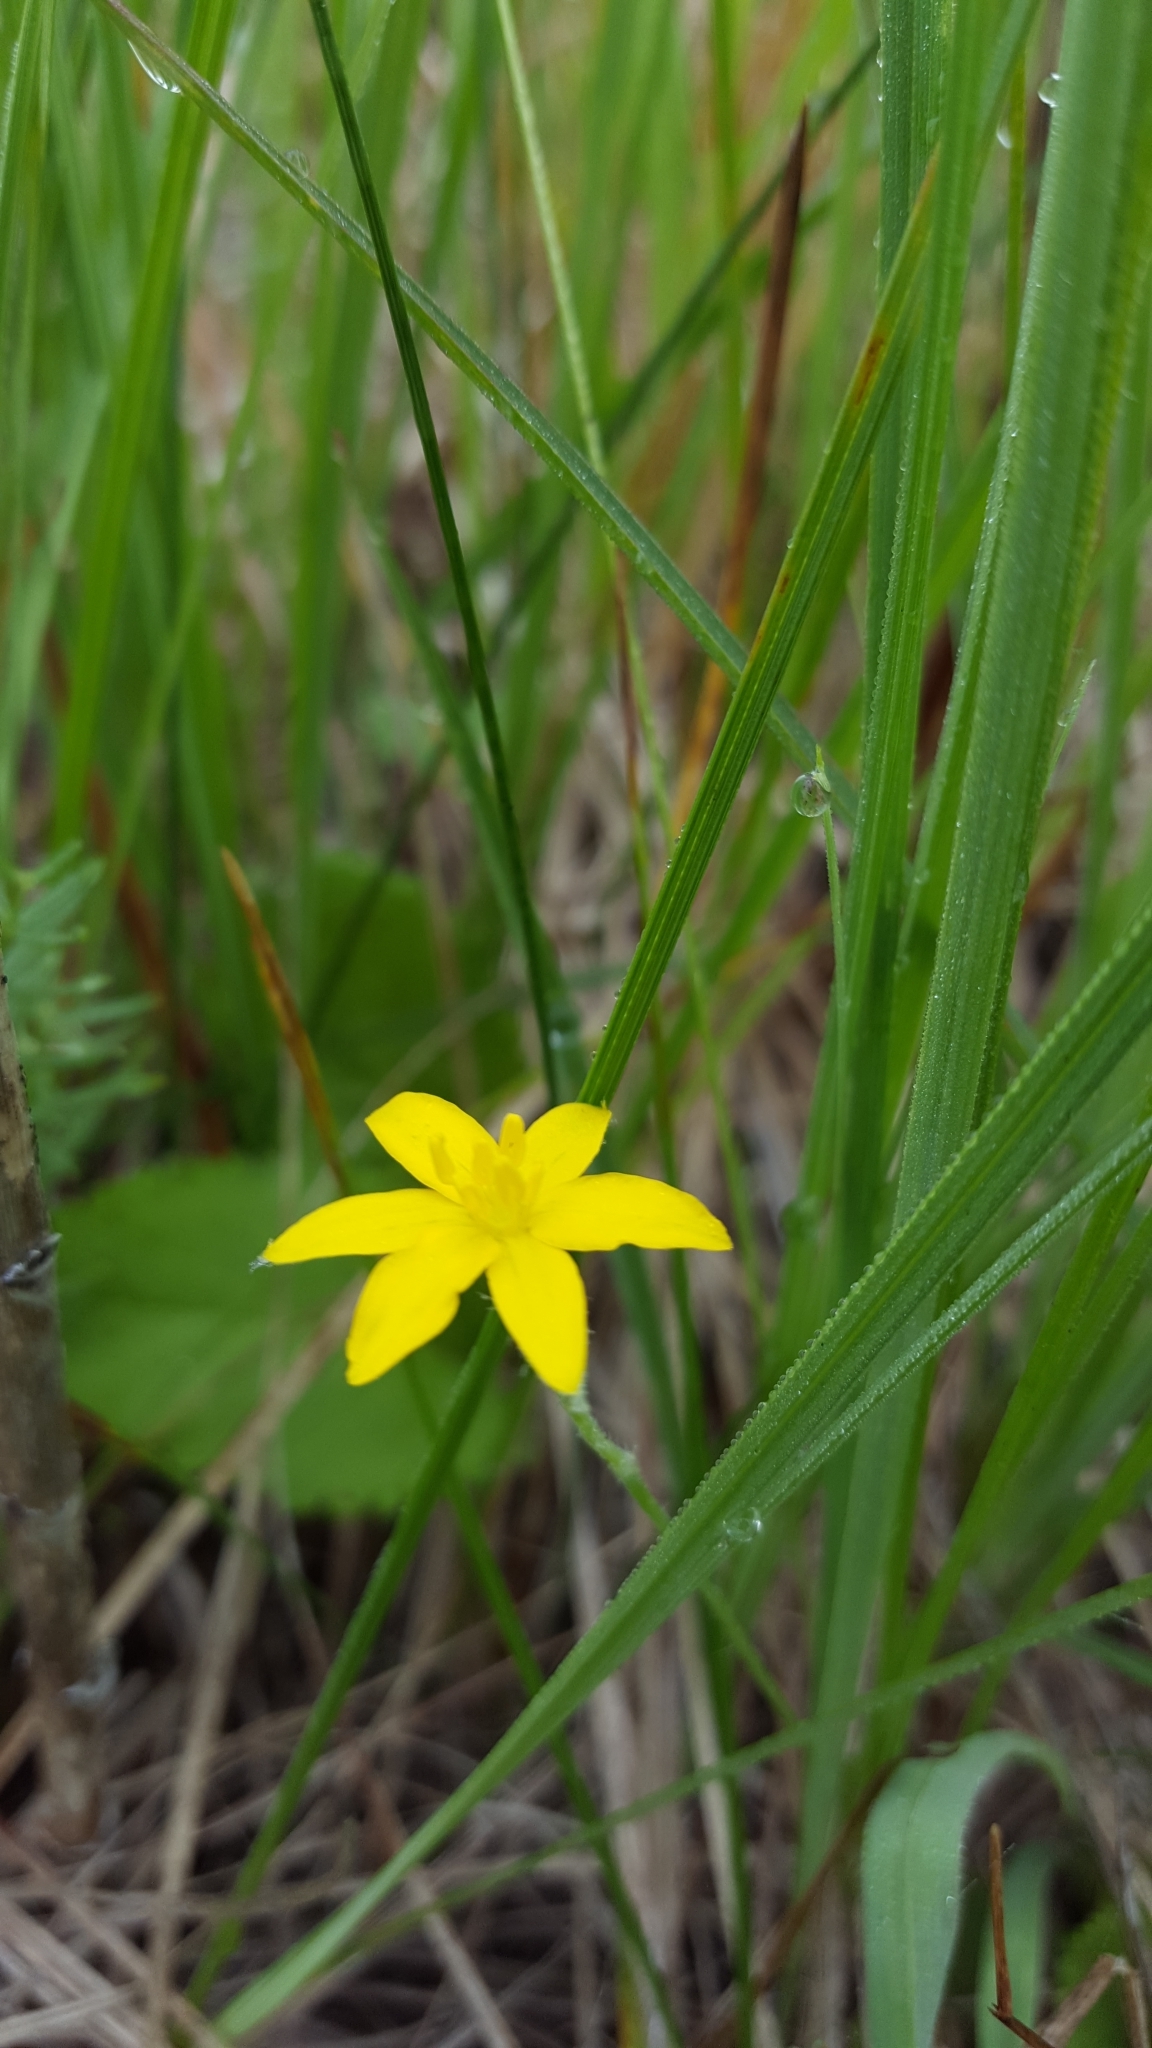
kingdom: Plantae
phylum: Tracheophyta
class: Liliopsida
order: Asparagales
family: Hypoxidaceae
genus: Hypoxis
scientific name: Hypoxis hirsuta
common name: Common goldstar
